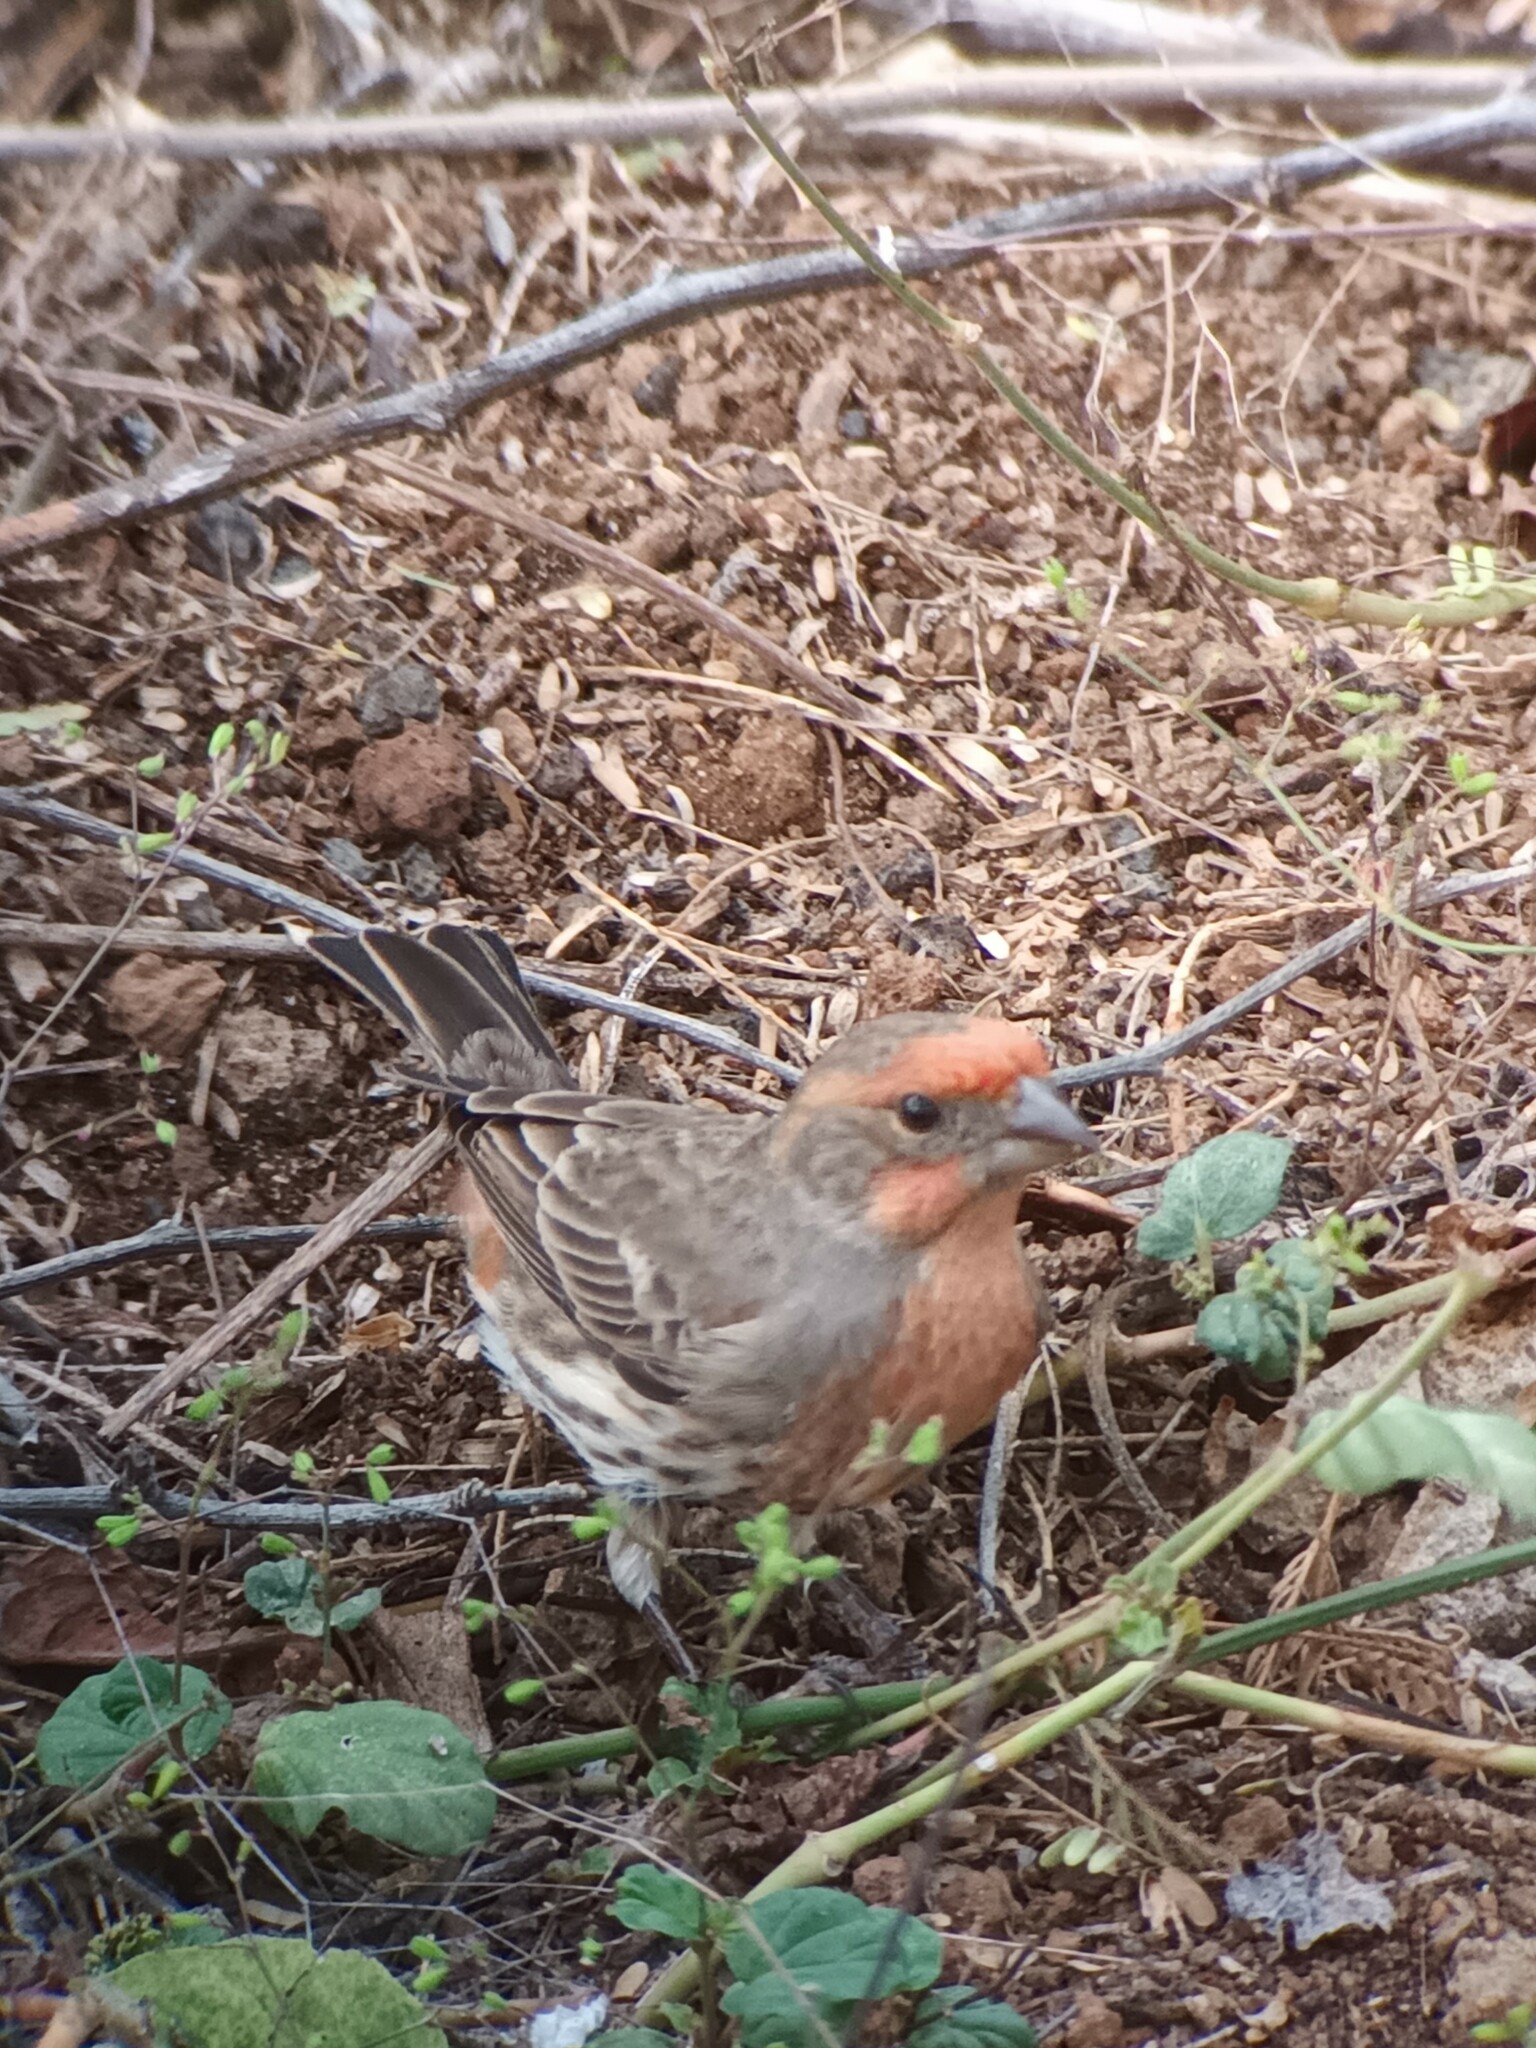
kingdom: Animalia
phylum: Chordata
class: Aves
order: Passeriformes
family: Fringillidae
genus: Haemorhous
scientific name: Haemorhous mexicanus
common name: House finch
